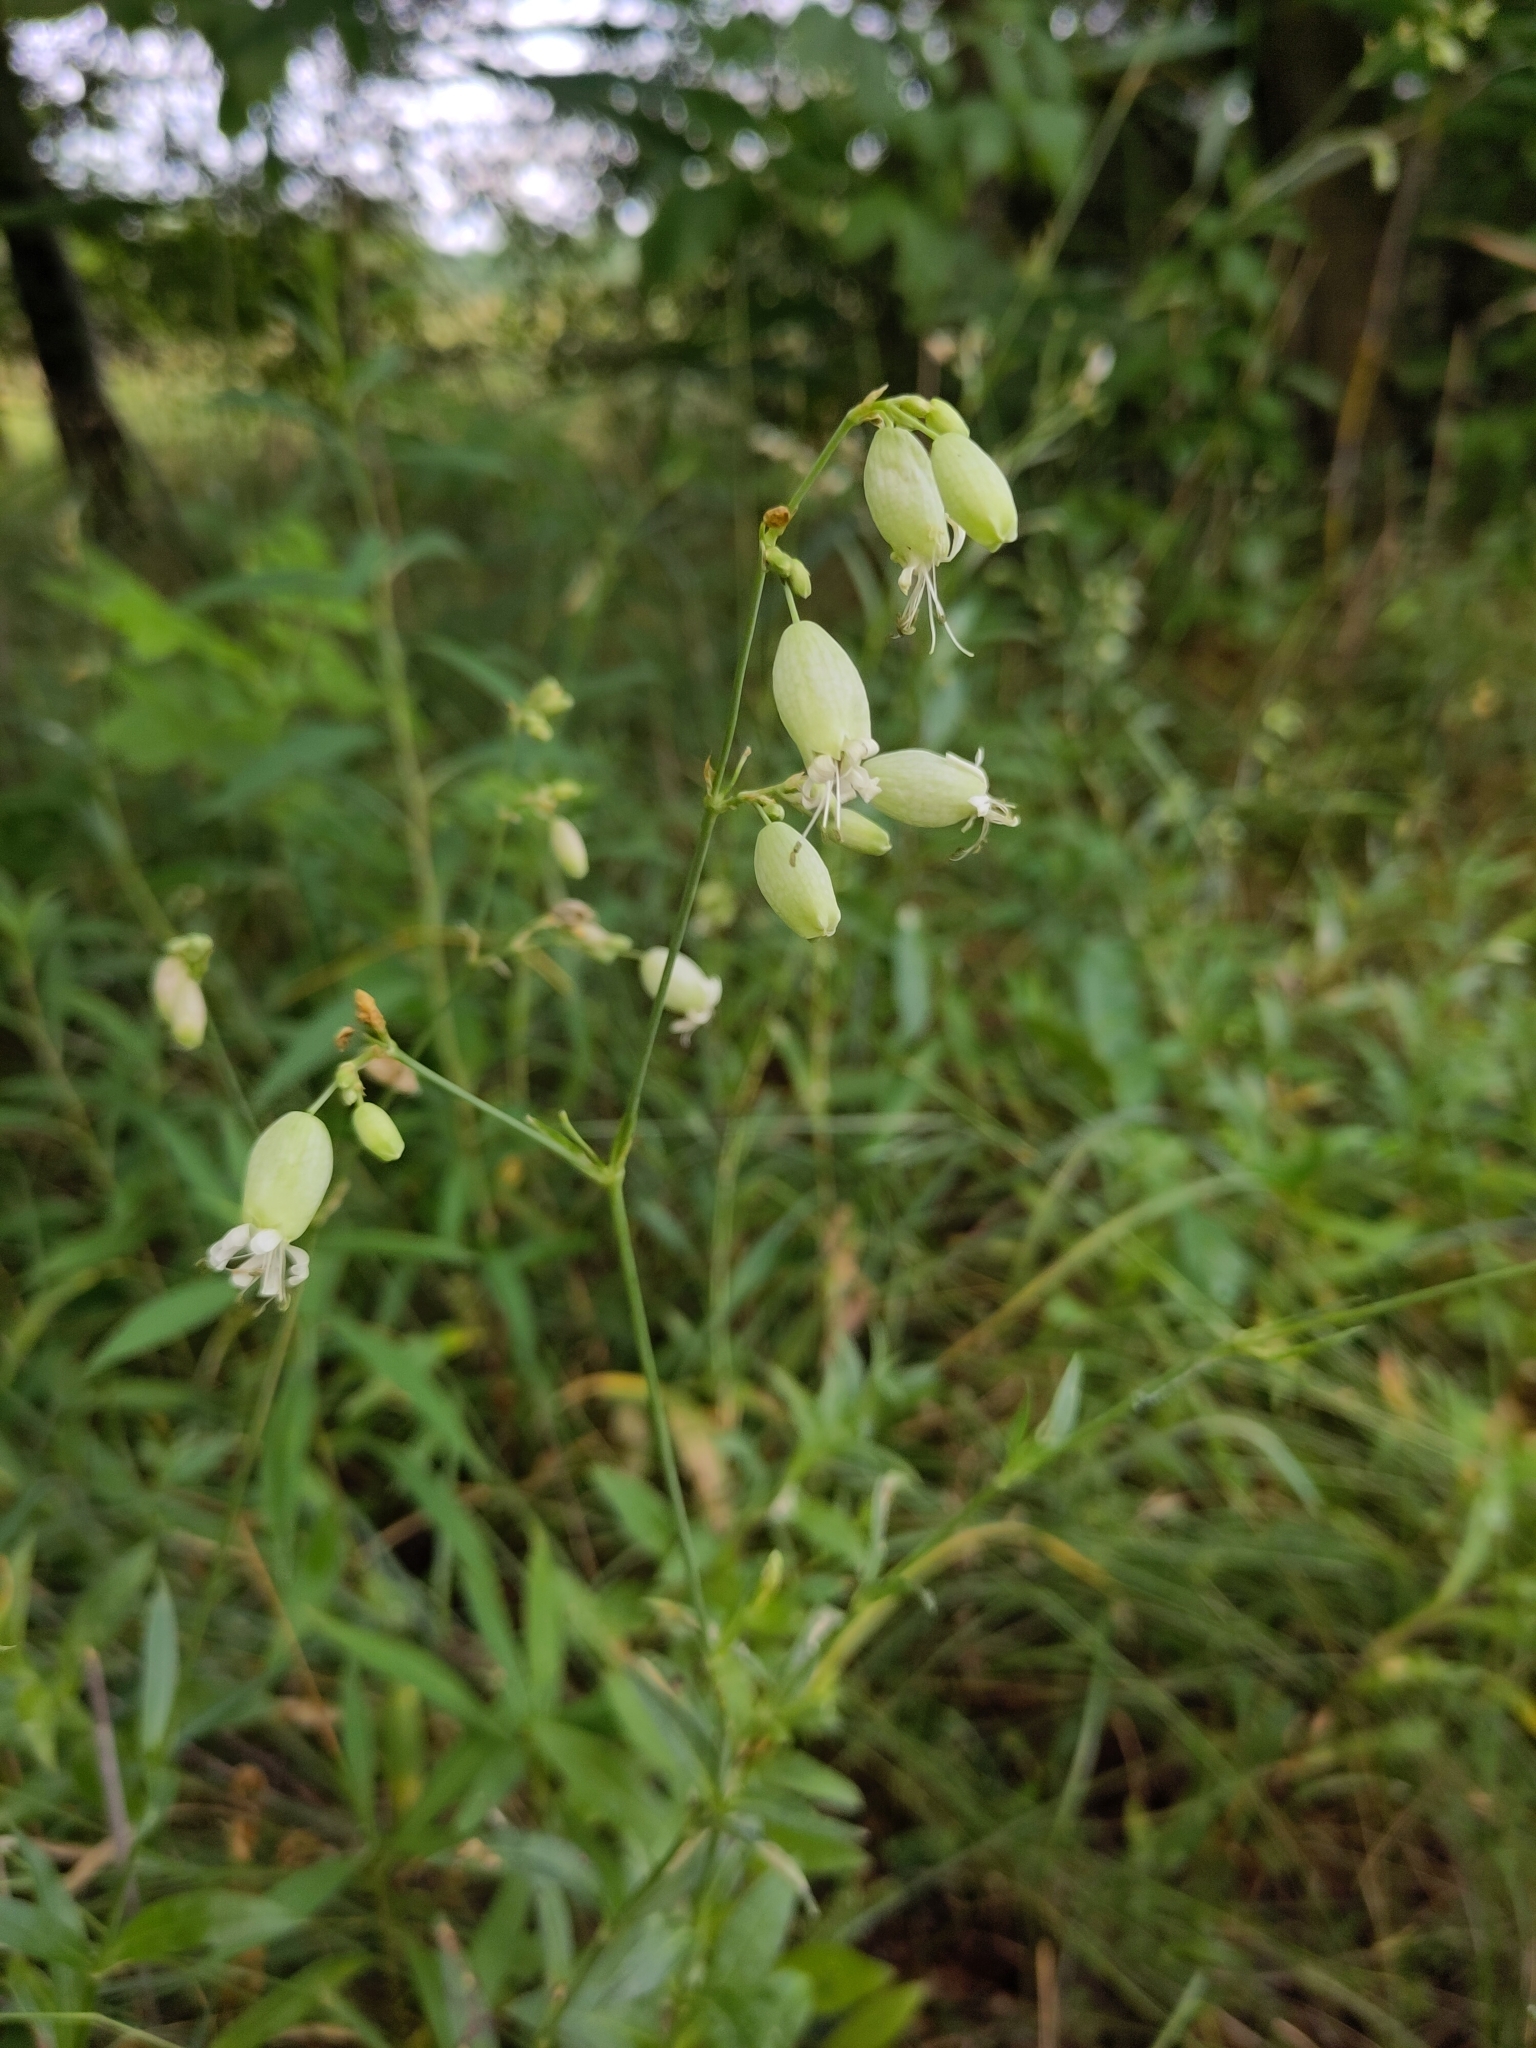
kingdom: Plantae
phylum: Tracheophyta
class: Magnoliopsida
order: Caryophyllales
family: Caryophyllaceae
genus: Silene
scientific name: Silene vulgaris
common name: Bladder campion
